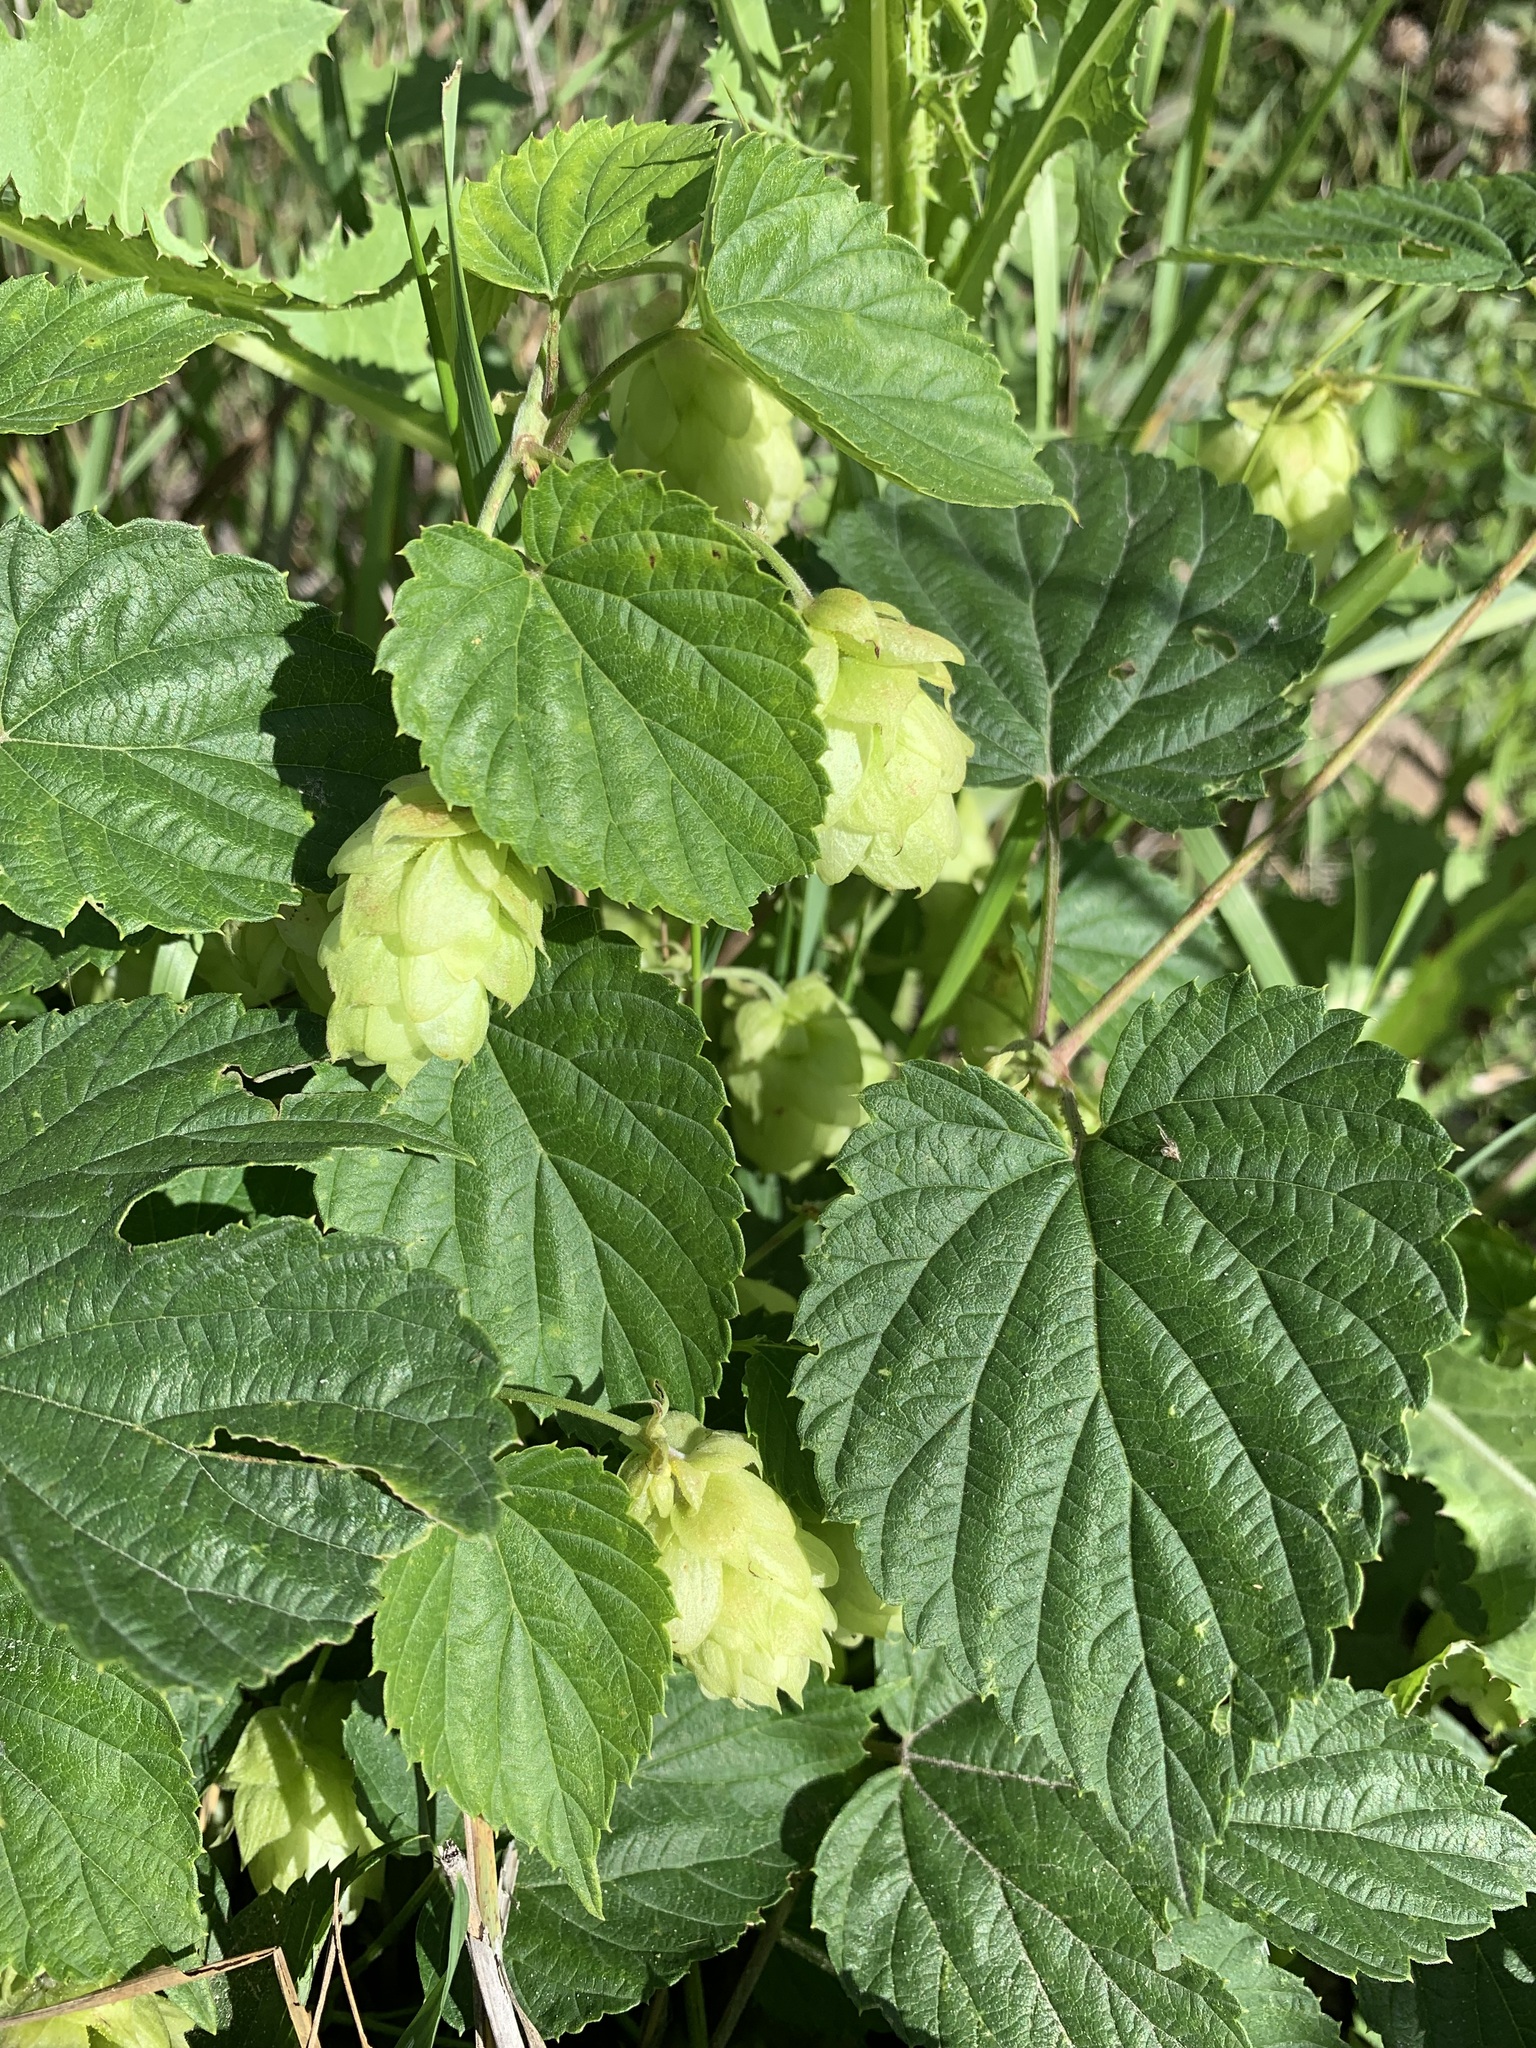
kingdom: Plantae
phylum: Tracheophyta
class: Magnoliopsida
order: Rosales
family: Cannabaceae
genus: Humulus
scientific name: Humulus lupulus
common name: Hop
